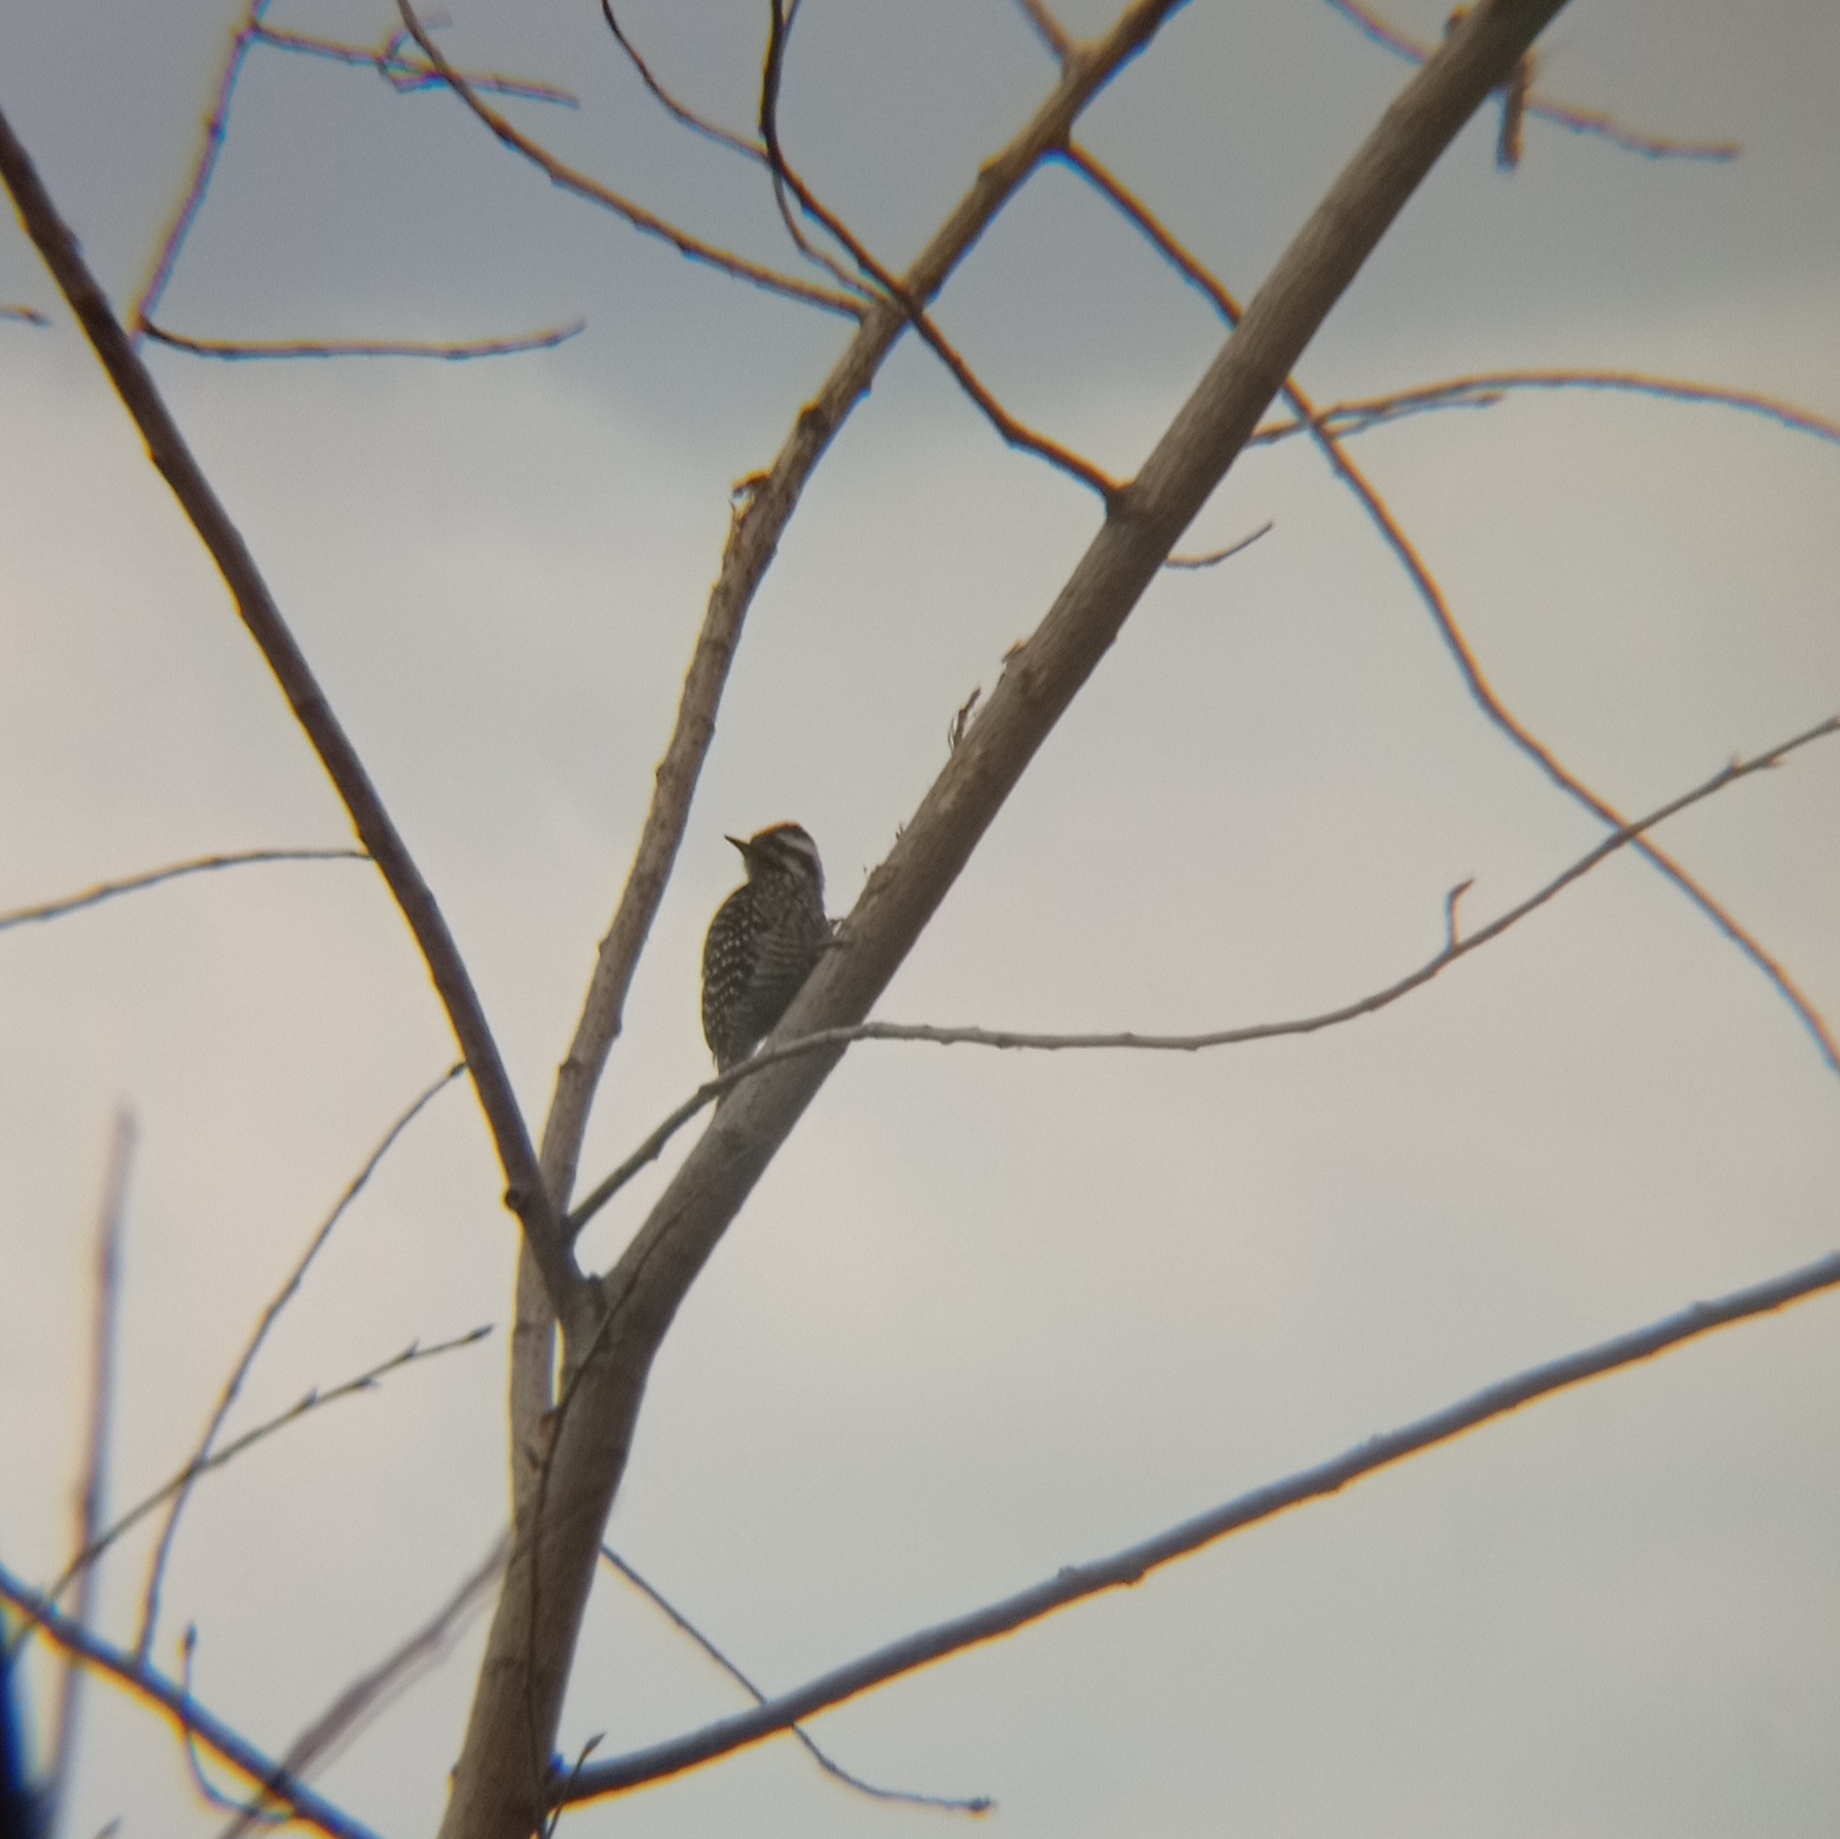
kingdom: Animalia
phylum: Chordata
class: Aves
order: Piciformes
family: Picidae
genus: Veniliornis
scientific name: Veniliornis lignarius
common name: Striped woodpecker
